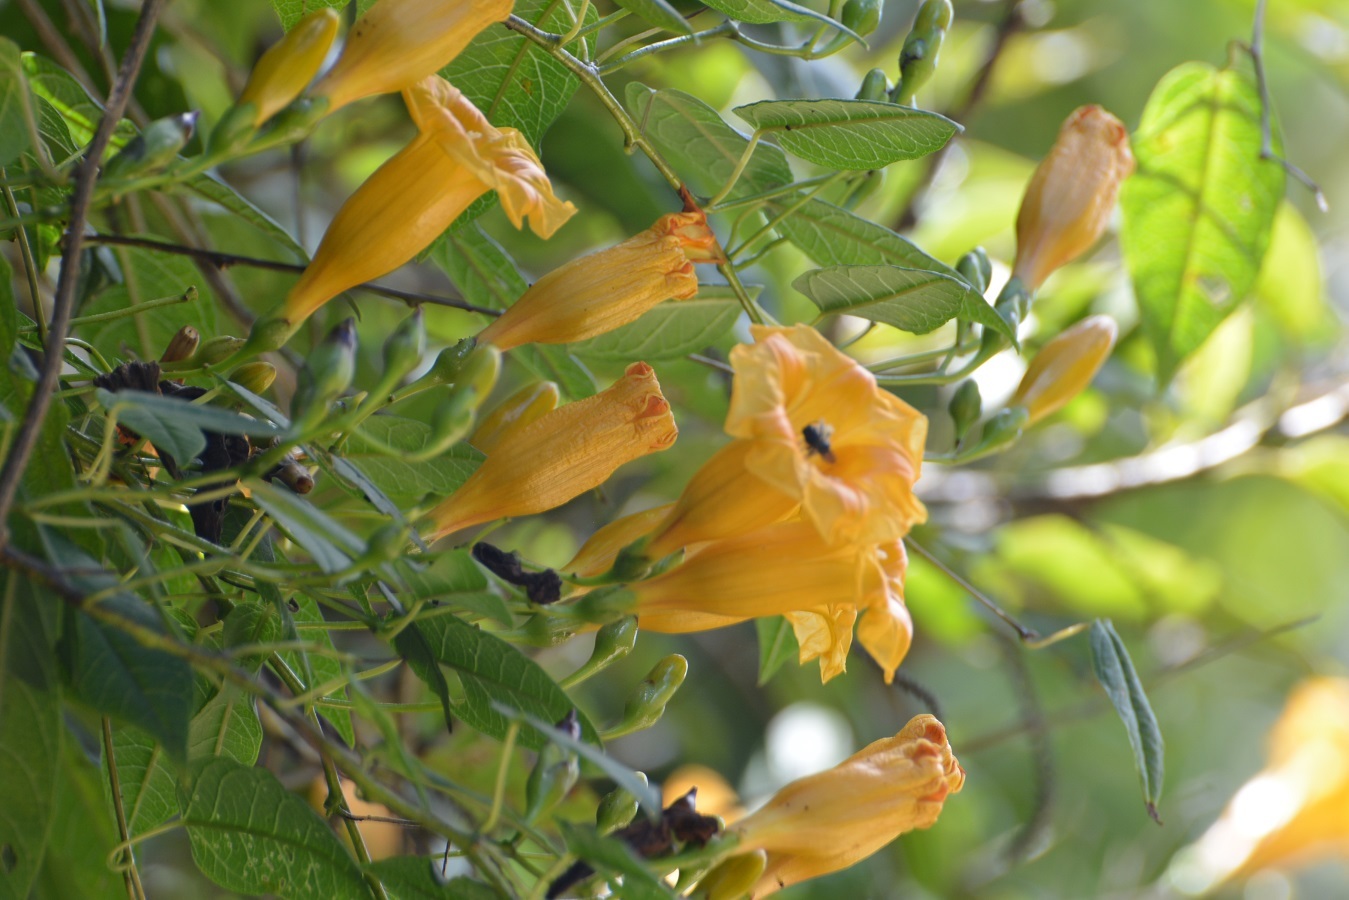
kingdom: Plantae
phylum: Tracheophyta
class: Magnoliopsida
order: Solanales
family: Convolvulaceae
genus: Ipomoea
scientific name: Ipomoea aurantiaca
